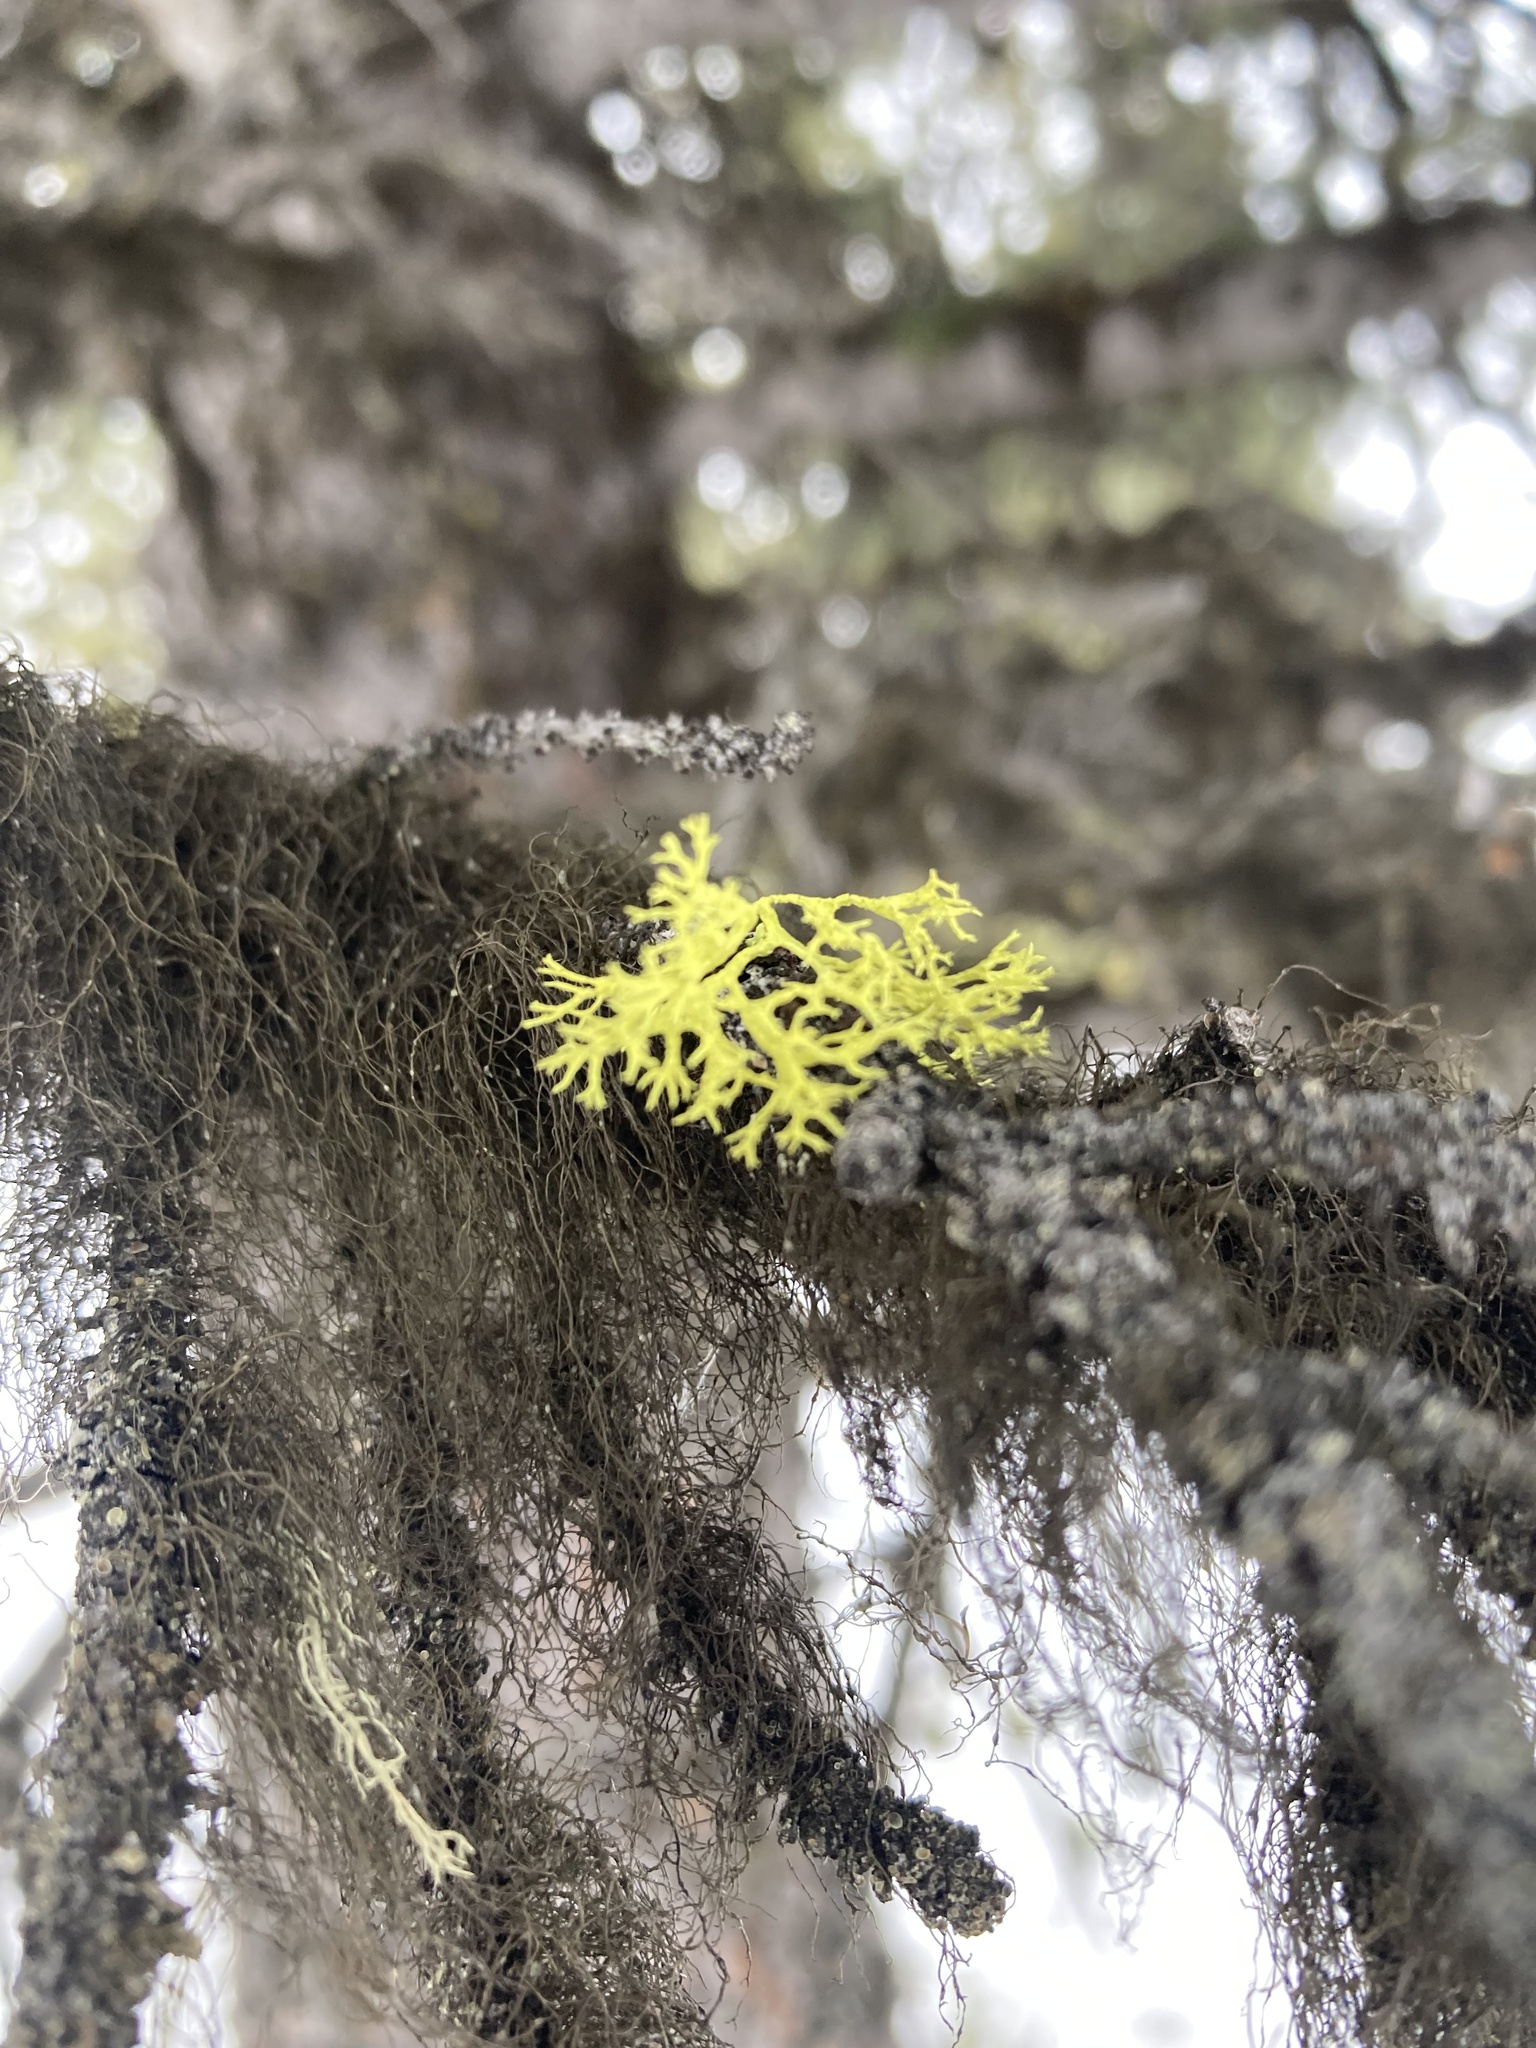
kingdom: Fungi
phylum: Ascomycota
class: Lecanoromycetes
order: Lecanorales
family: Parmeliaceae
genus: Letharia
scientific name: Letharia vulpina
